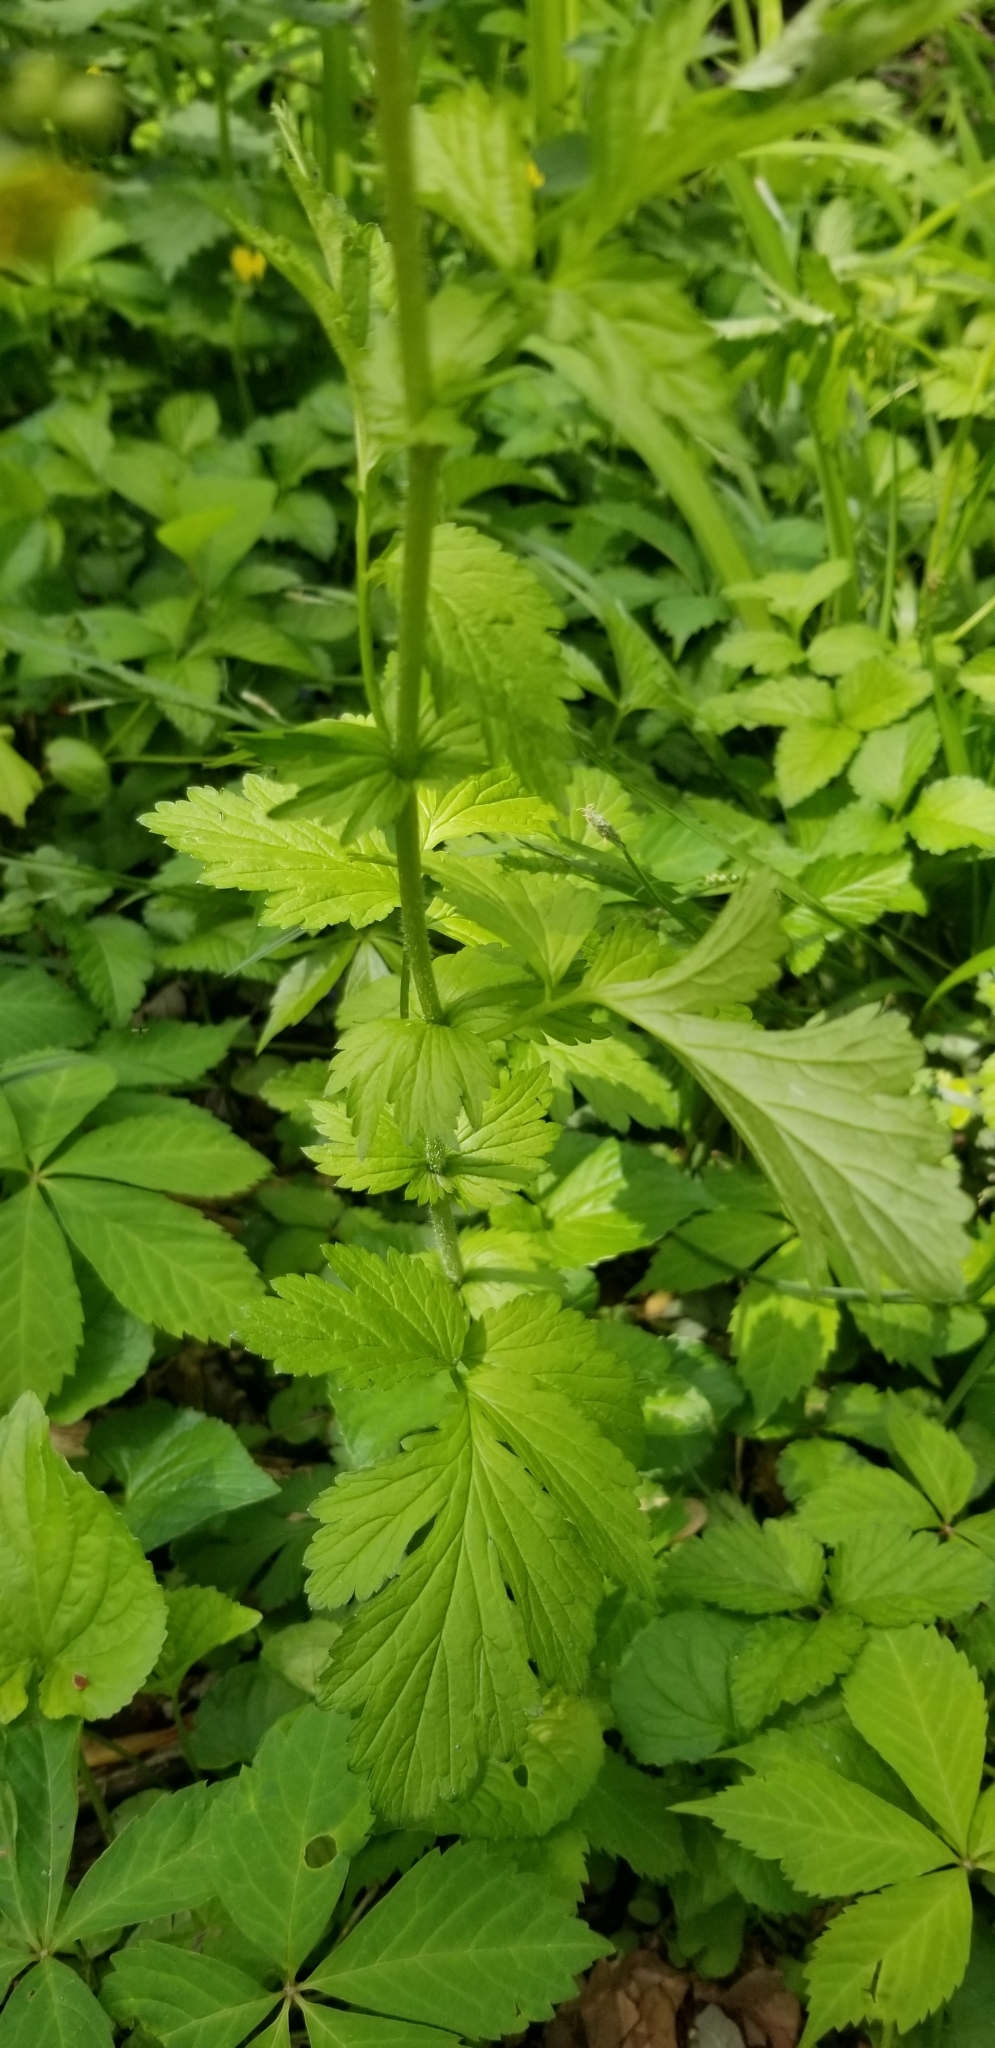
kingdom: Plantae
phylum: Tracheophyta
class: Magnoliopsida
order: Rosales
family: Rosaceae
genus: Geum
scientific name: Geum vernum
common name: Spring avens
